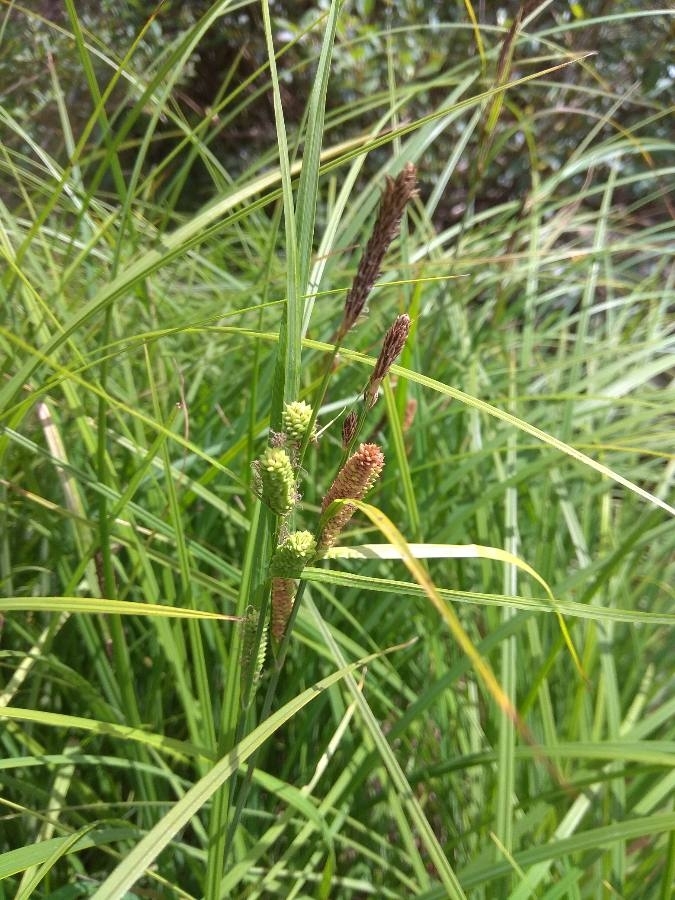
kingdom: Plantae
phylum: Tracheophyta
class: Liliopsida
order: Poales
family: Cyperaceae
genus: Carex
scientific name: Carex acuta
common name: Slender tufted-sedge
